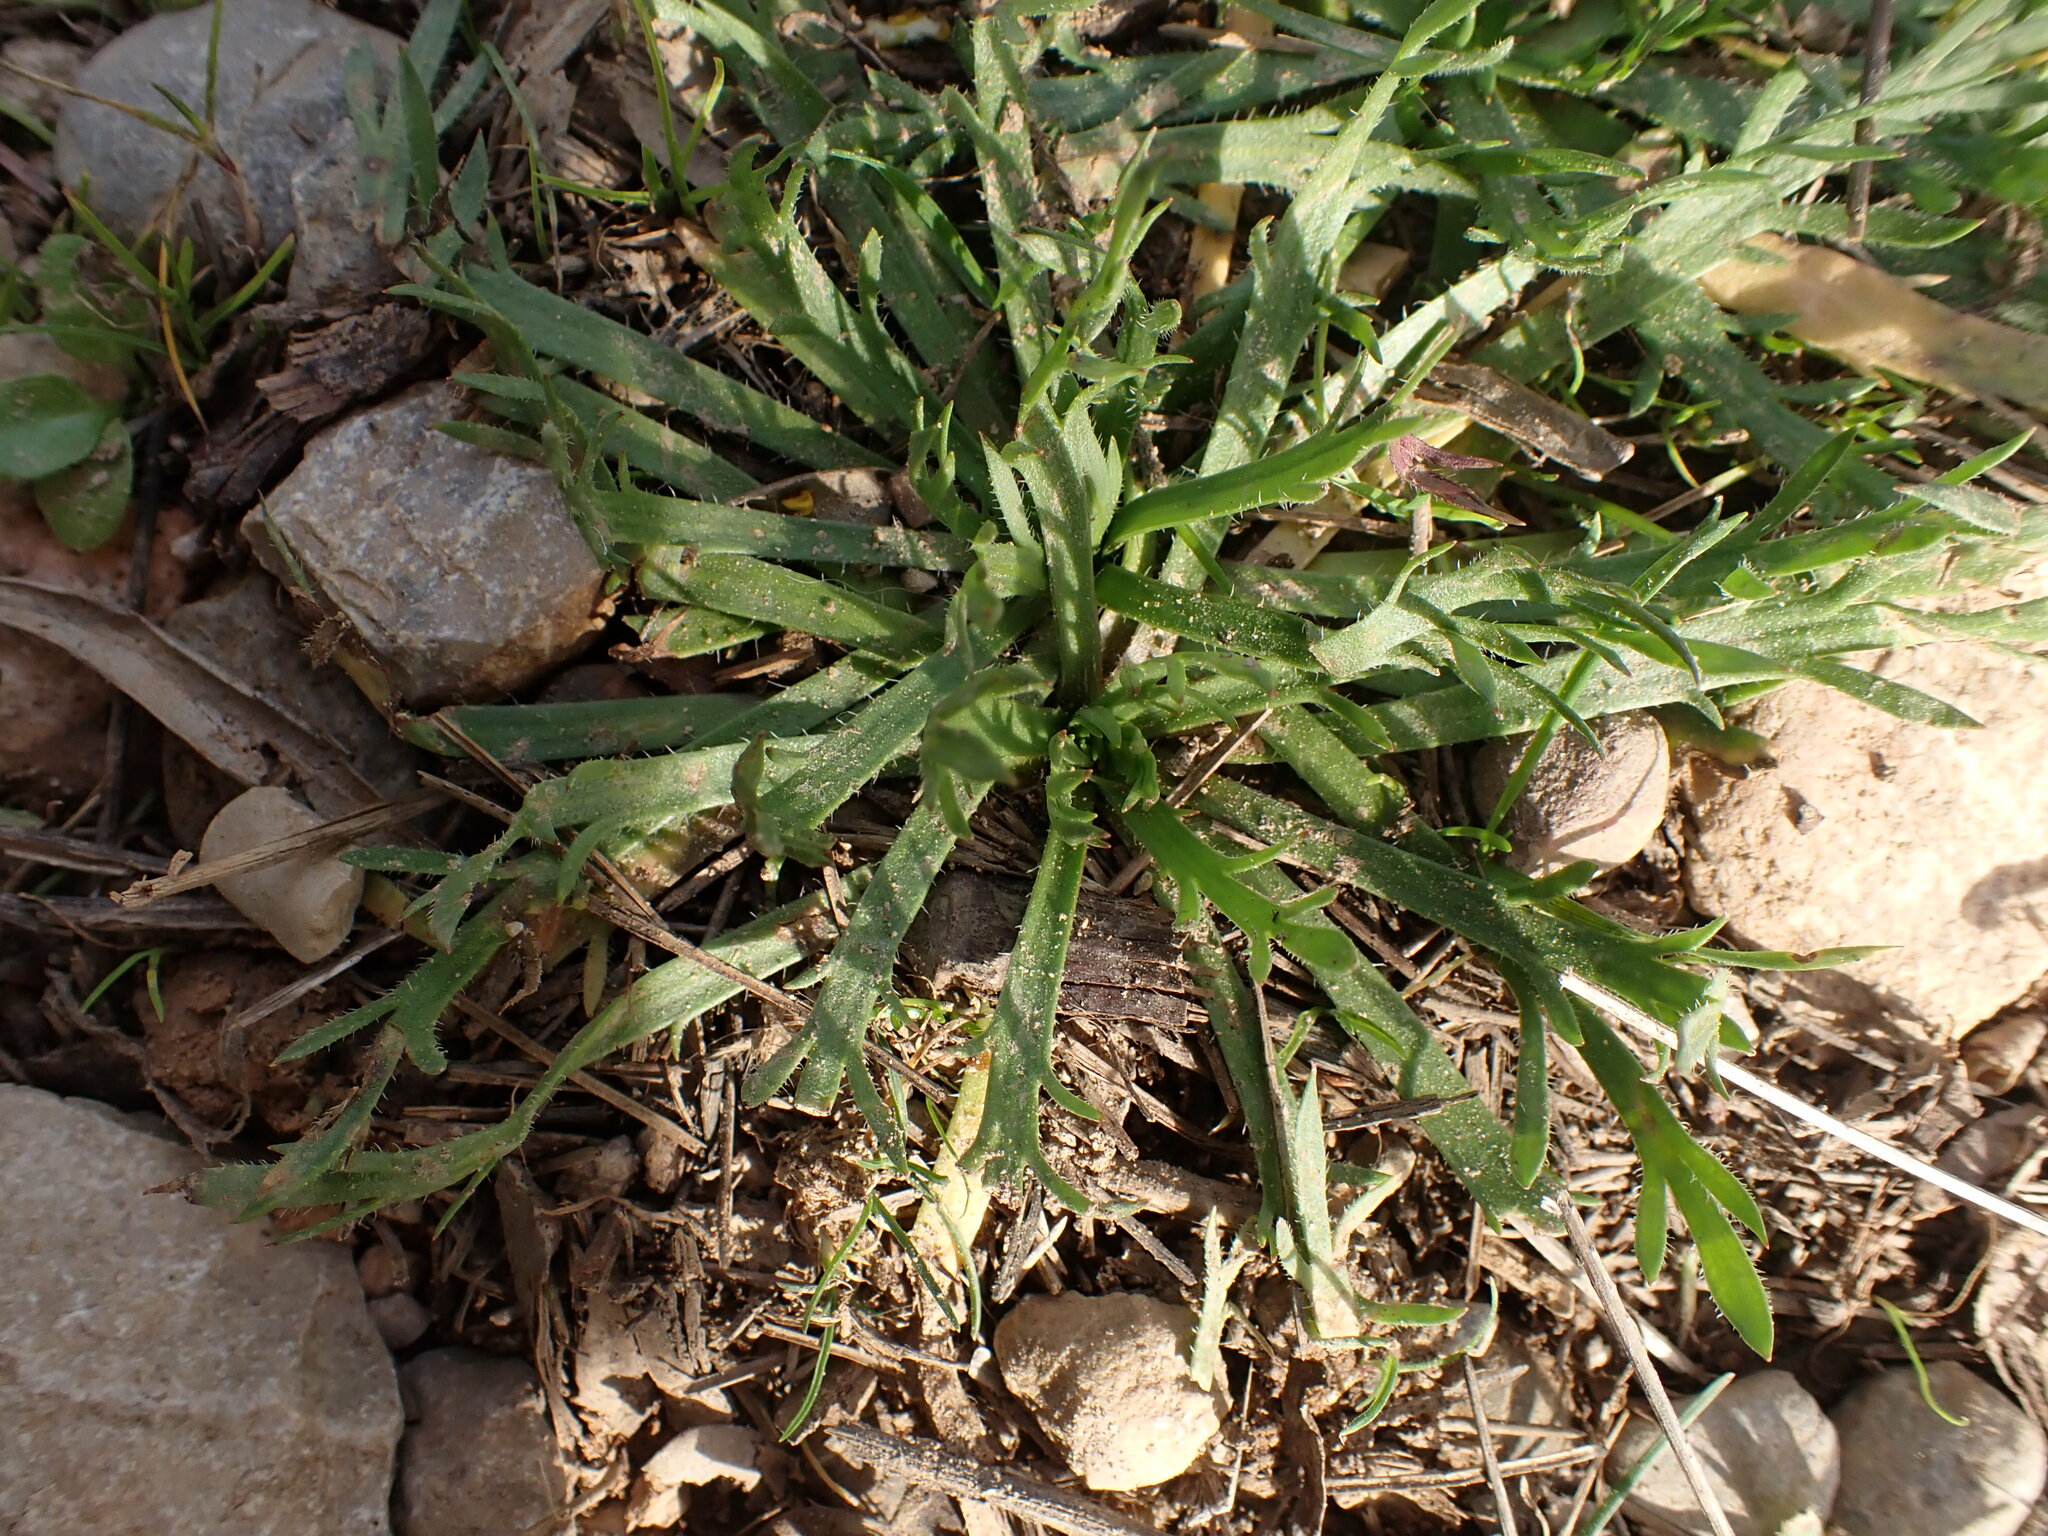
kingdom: Plantae
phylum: Tracheophyta
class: Magnoliopsida
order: Lamiales
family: Plantaginaceae
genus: Plantago
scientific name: Plantago coronopus
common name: Buck's-horn plantain
